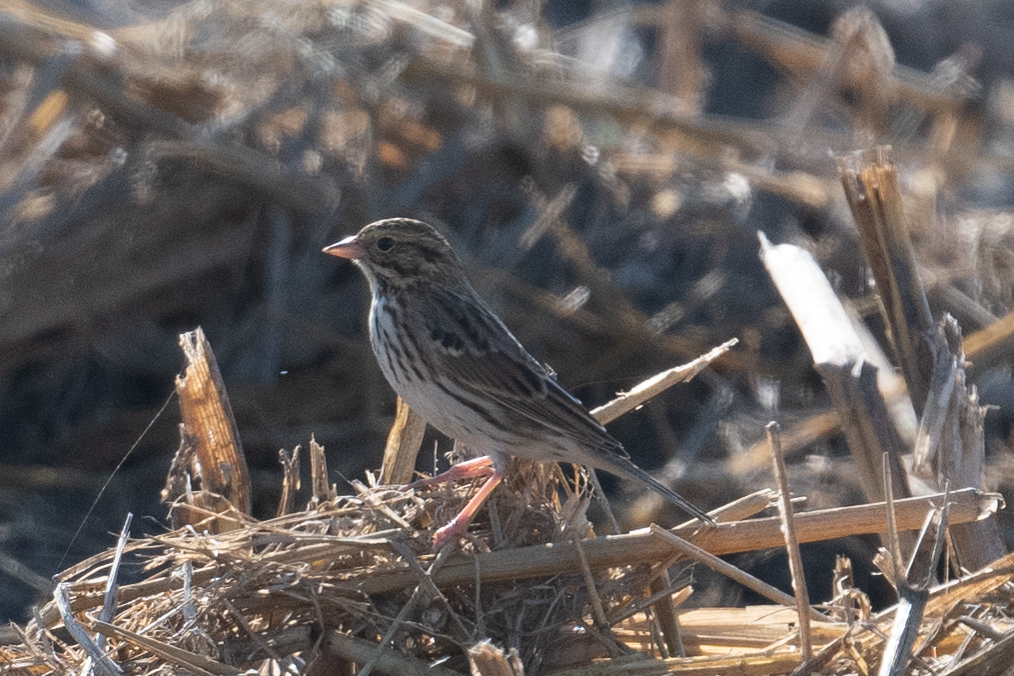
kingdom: Animalia
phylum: Chordata
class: Aves
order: Passeriformes
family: Passerellidae
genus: Passerculus
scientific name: Passerculus sandwichensis
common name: Savannah sparrow
